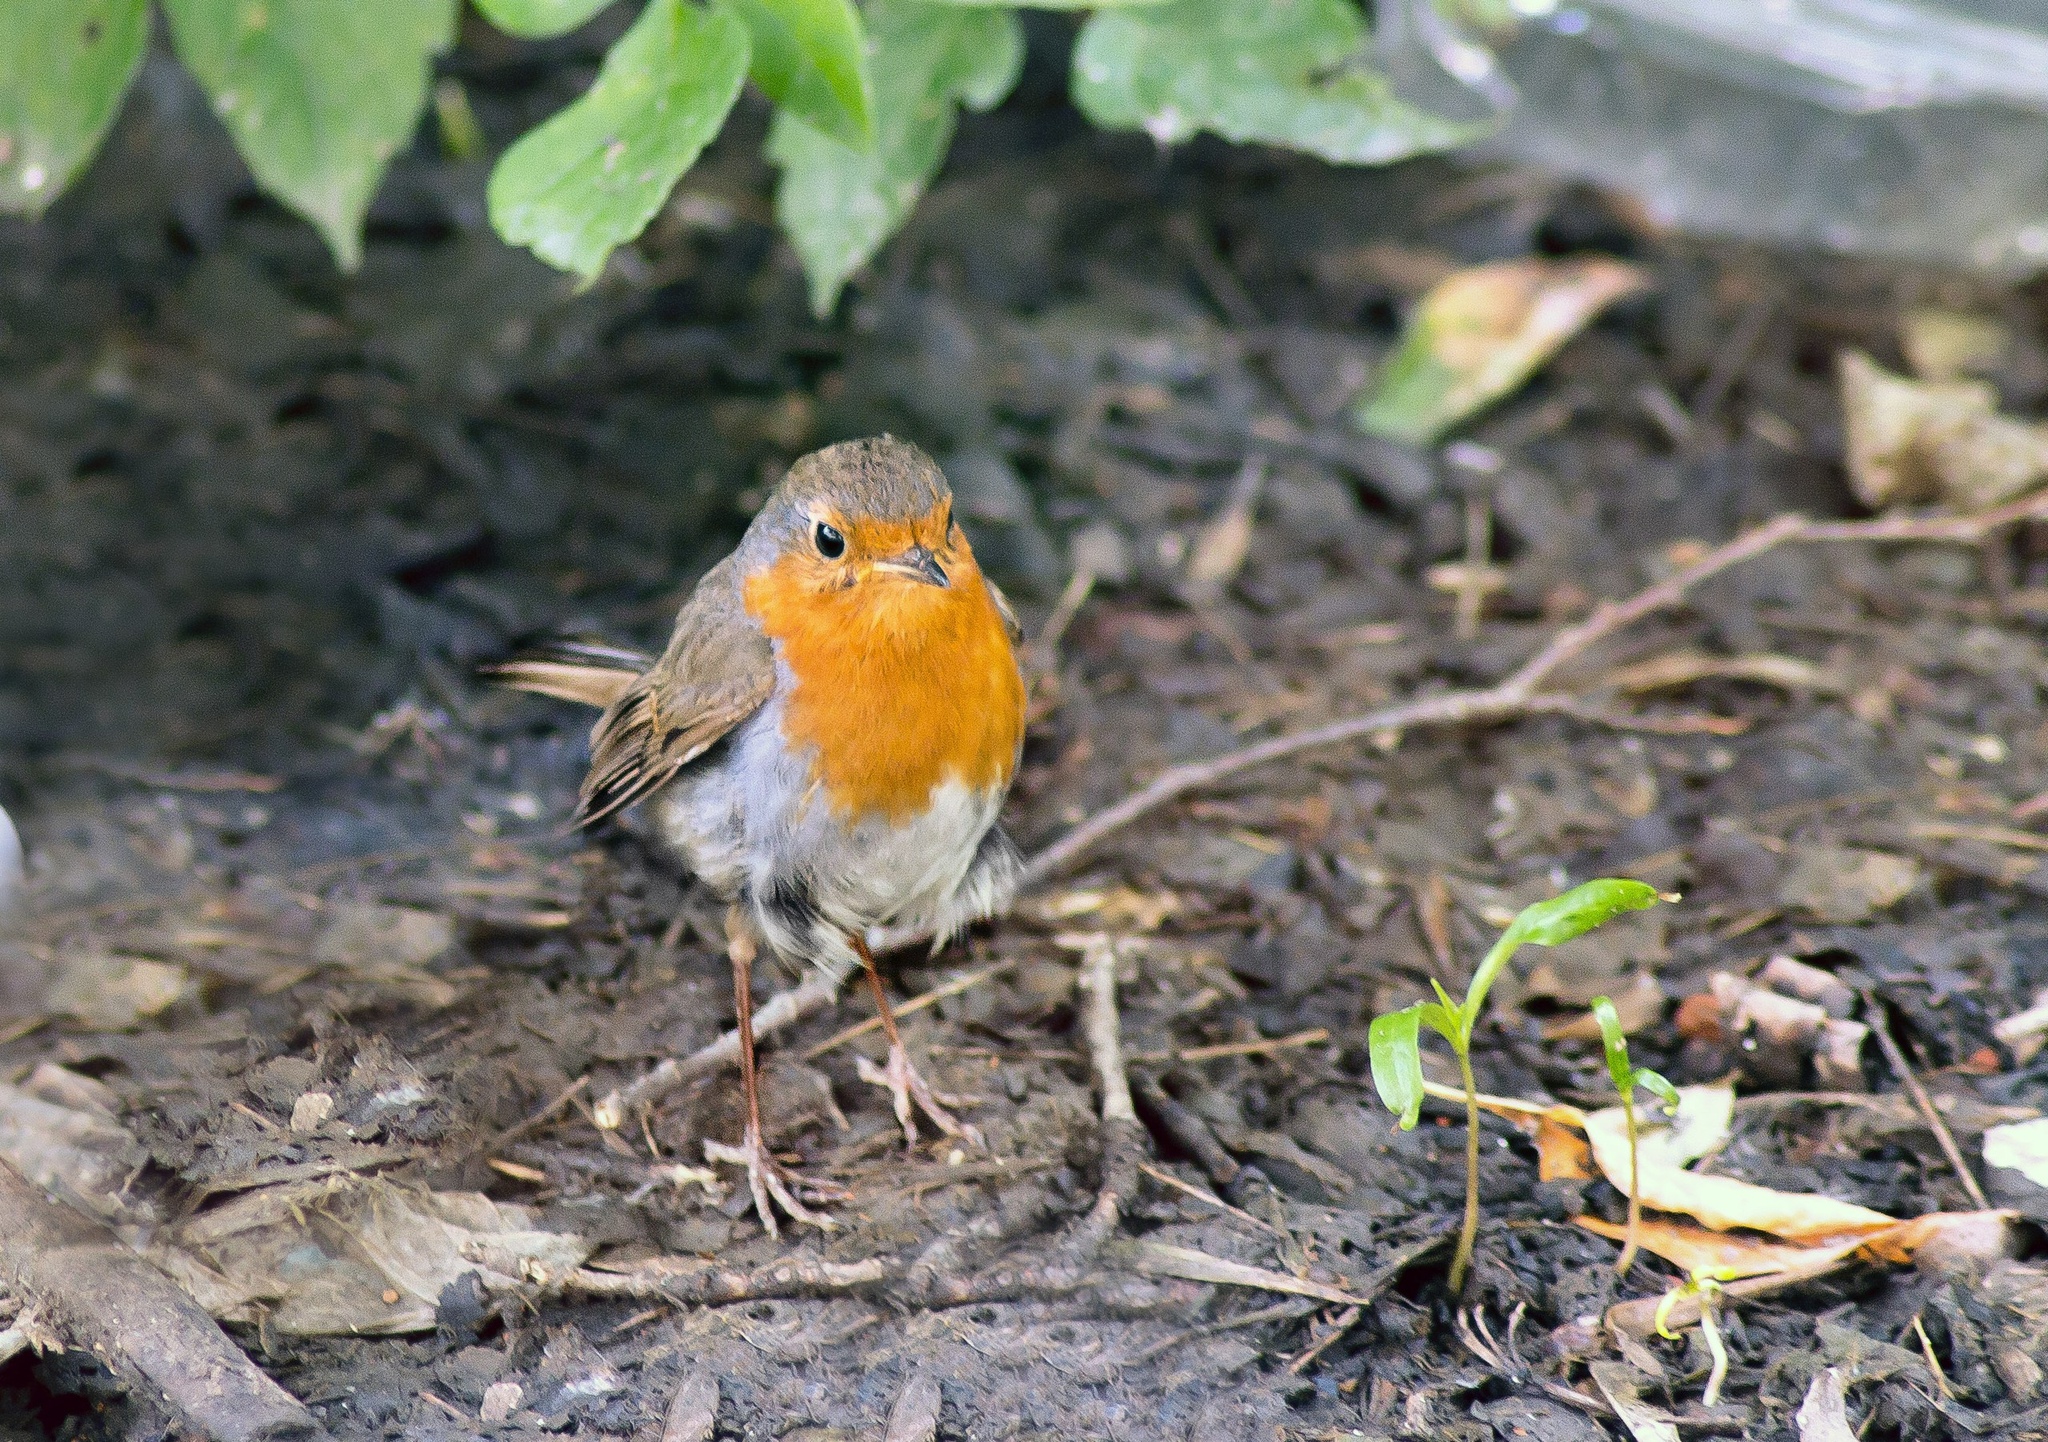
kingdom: Animalia
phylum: Chordata
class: Aves
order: Passeriformes
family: Muscicapidae
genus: Erithacus
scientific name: Erithacus rubecula
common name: European robin
